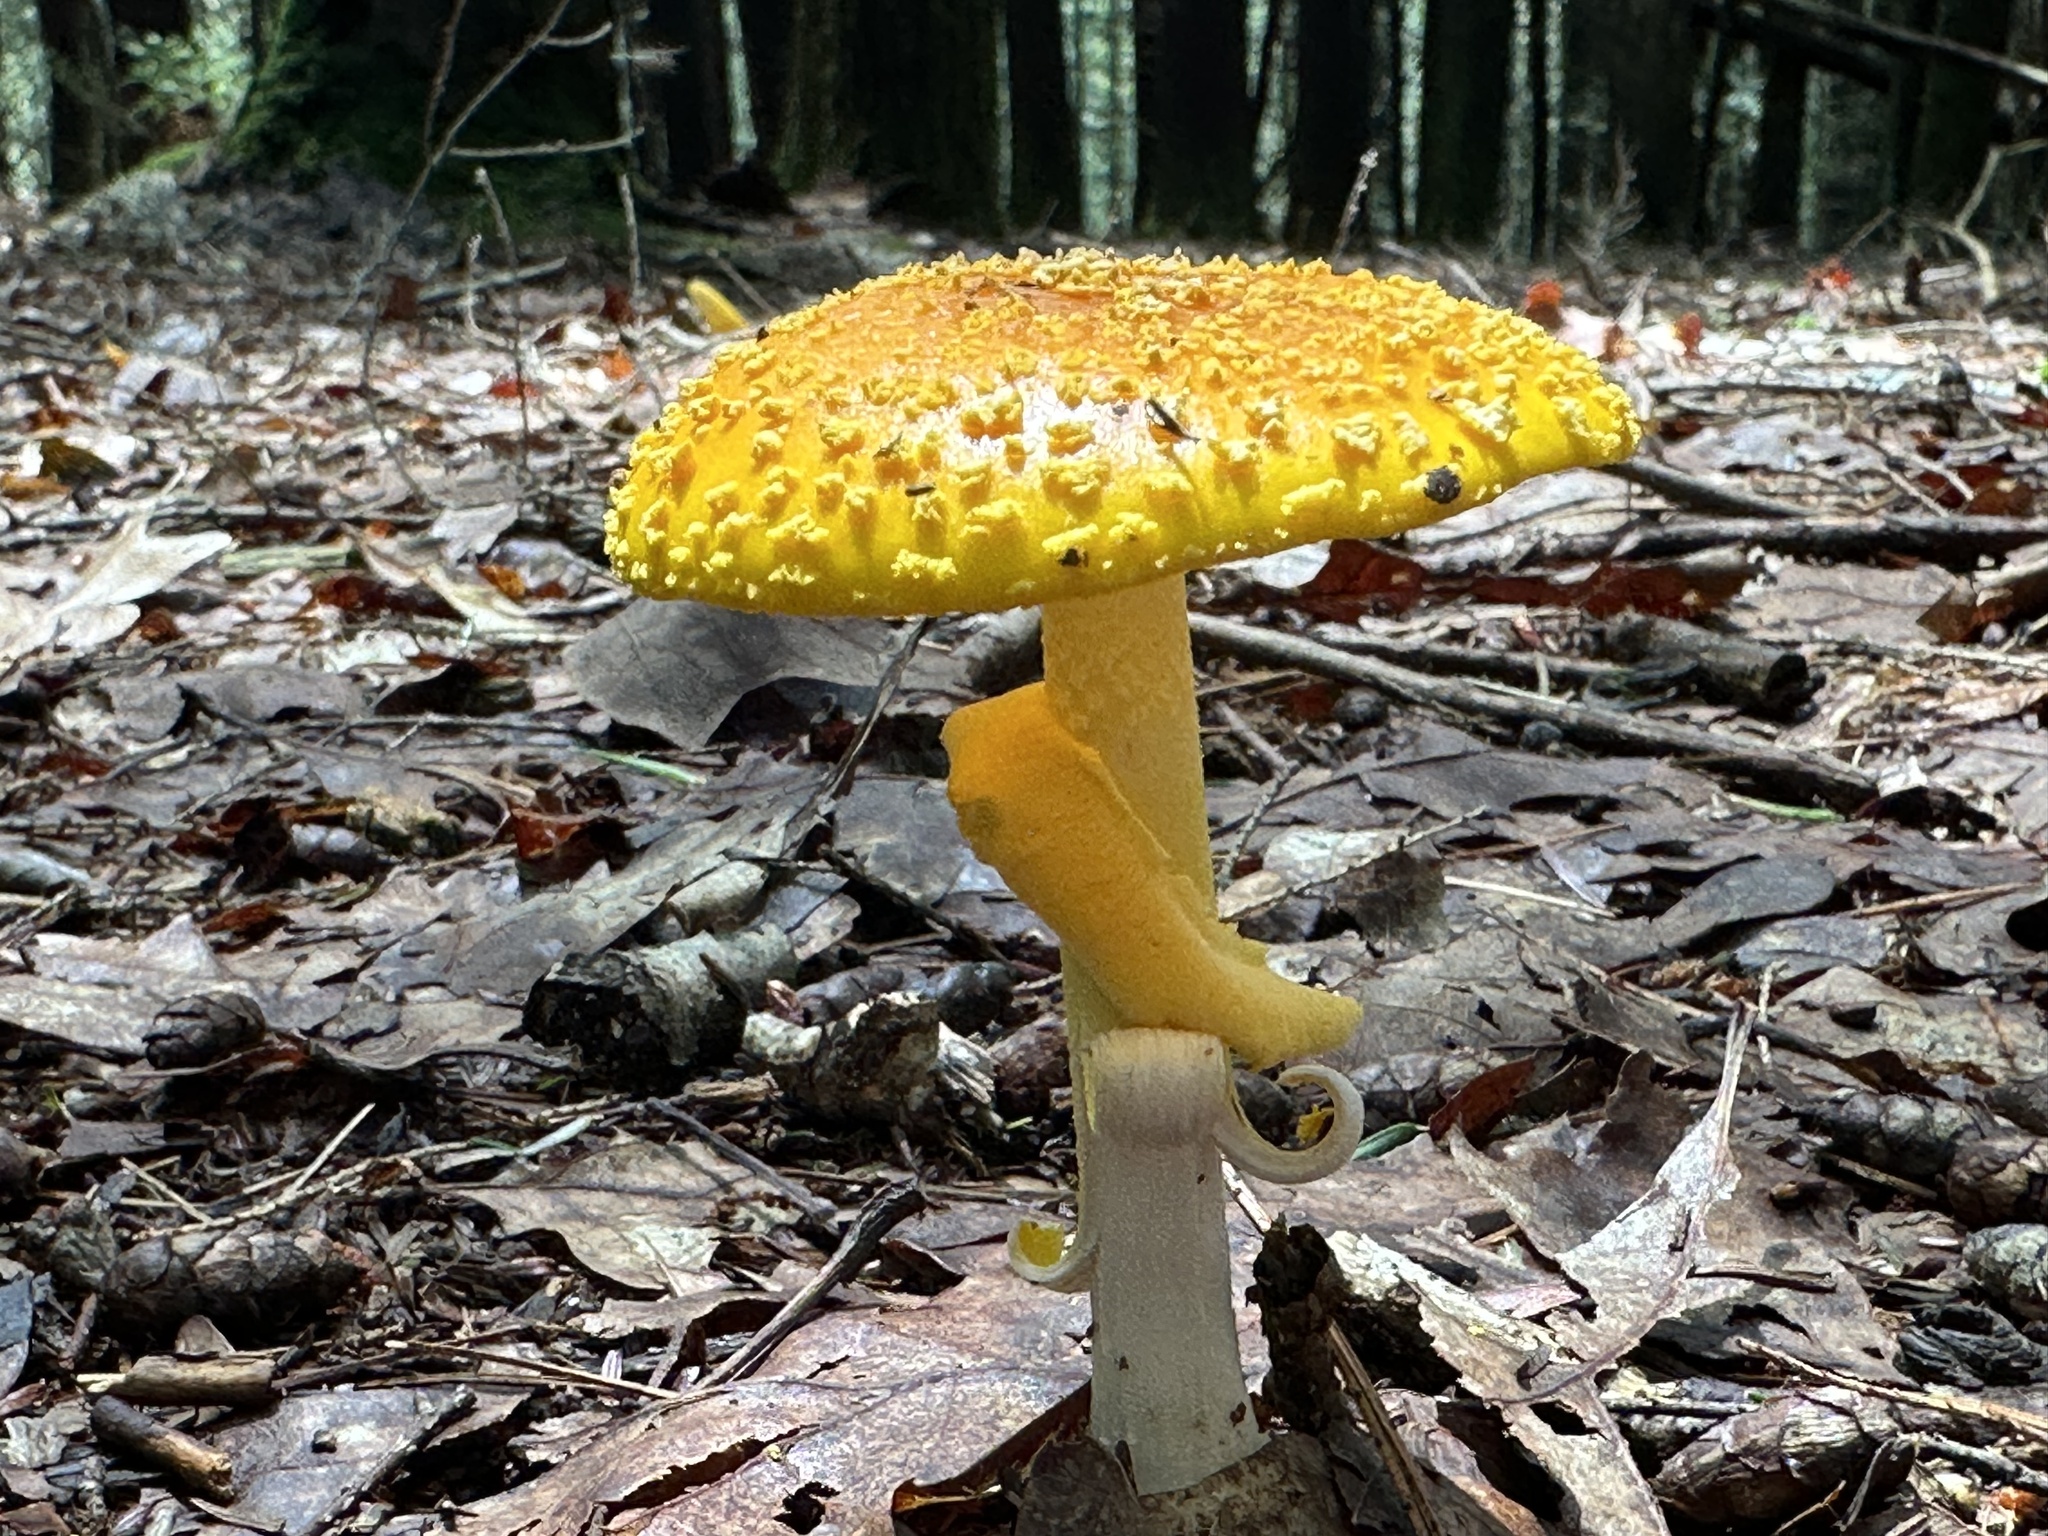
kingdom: Fungi
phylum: Basidiomycota
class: Agaricomycetes
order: Agaricales
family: Amanitaceae
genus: Amanita
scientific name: Amanita flavoconia
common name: Yellow patches
